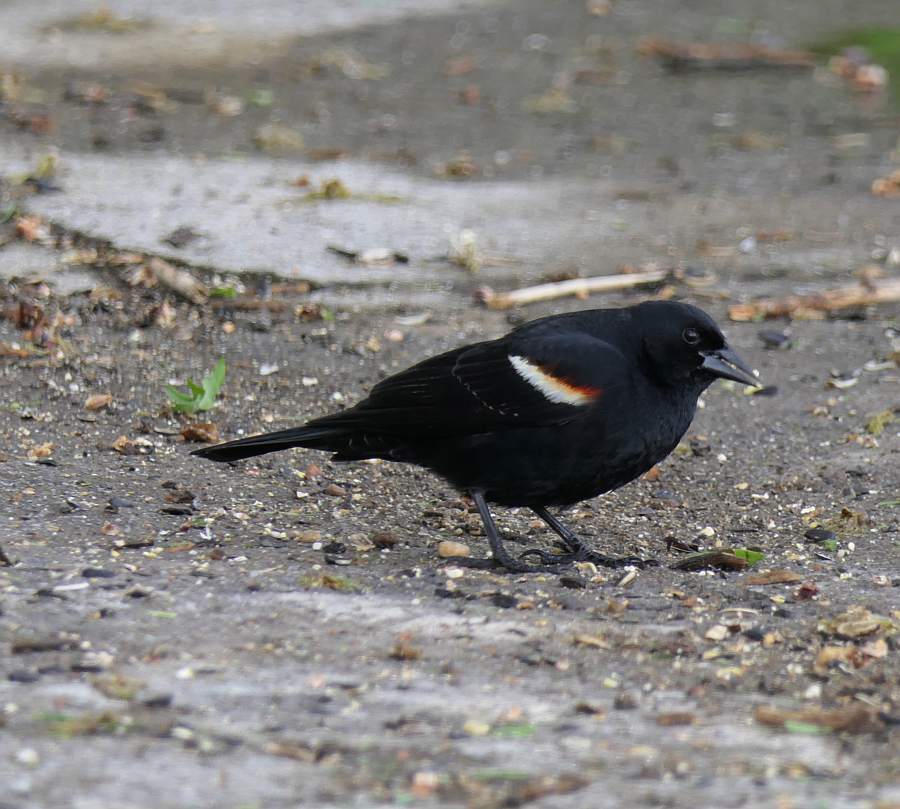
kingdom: Animalia
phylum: Chordata
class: Aves
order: Passeriformes
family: Icteridae
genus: Agelaius
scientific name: Agelaius phoeniceus
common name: Red-winged blackbird
